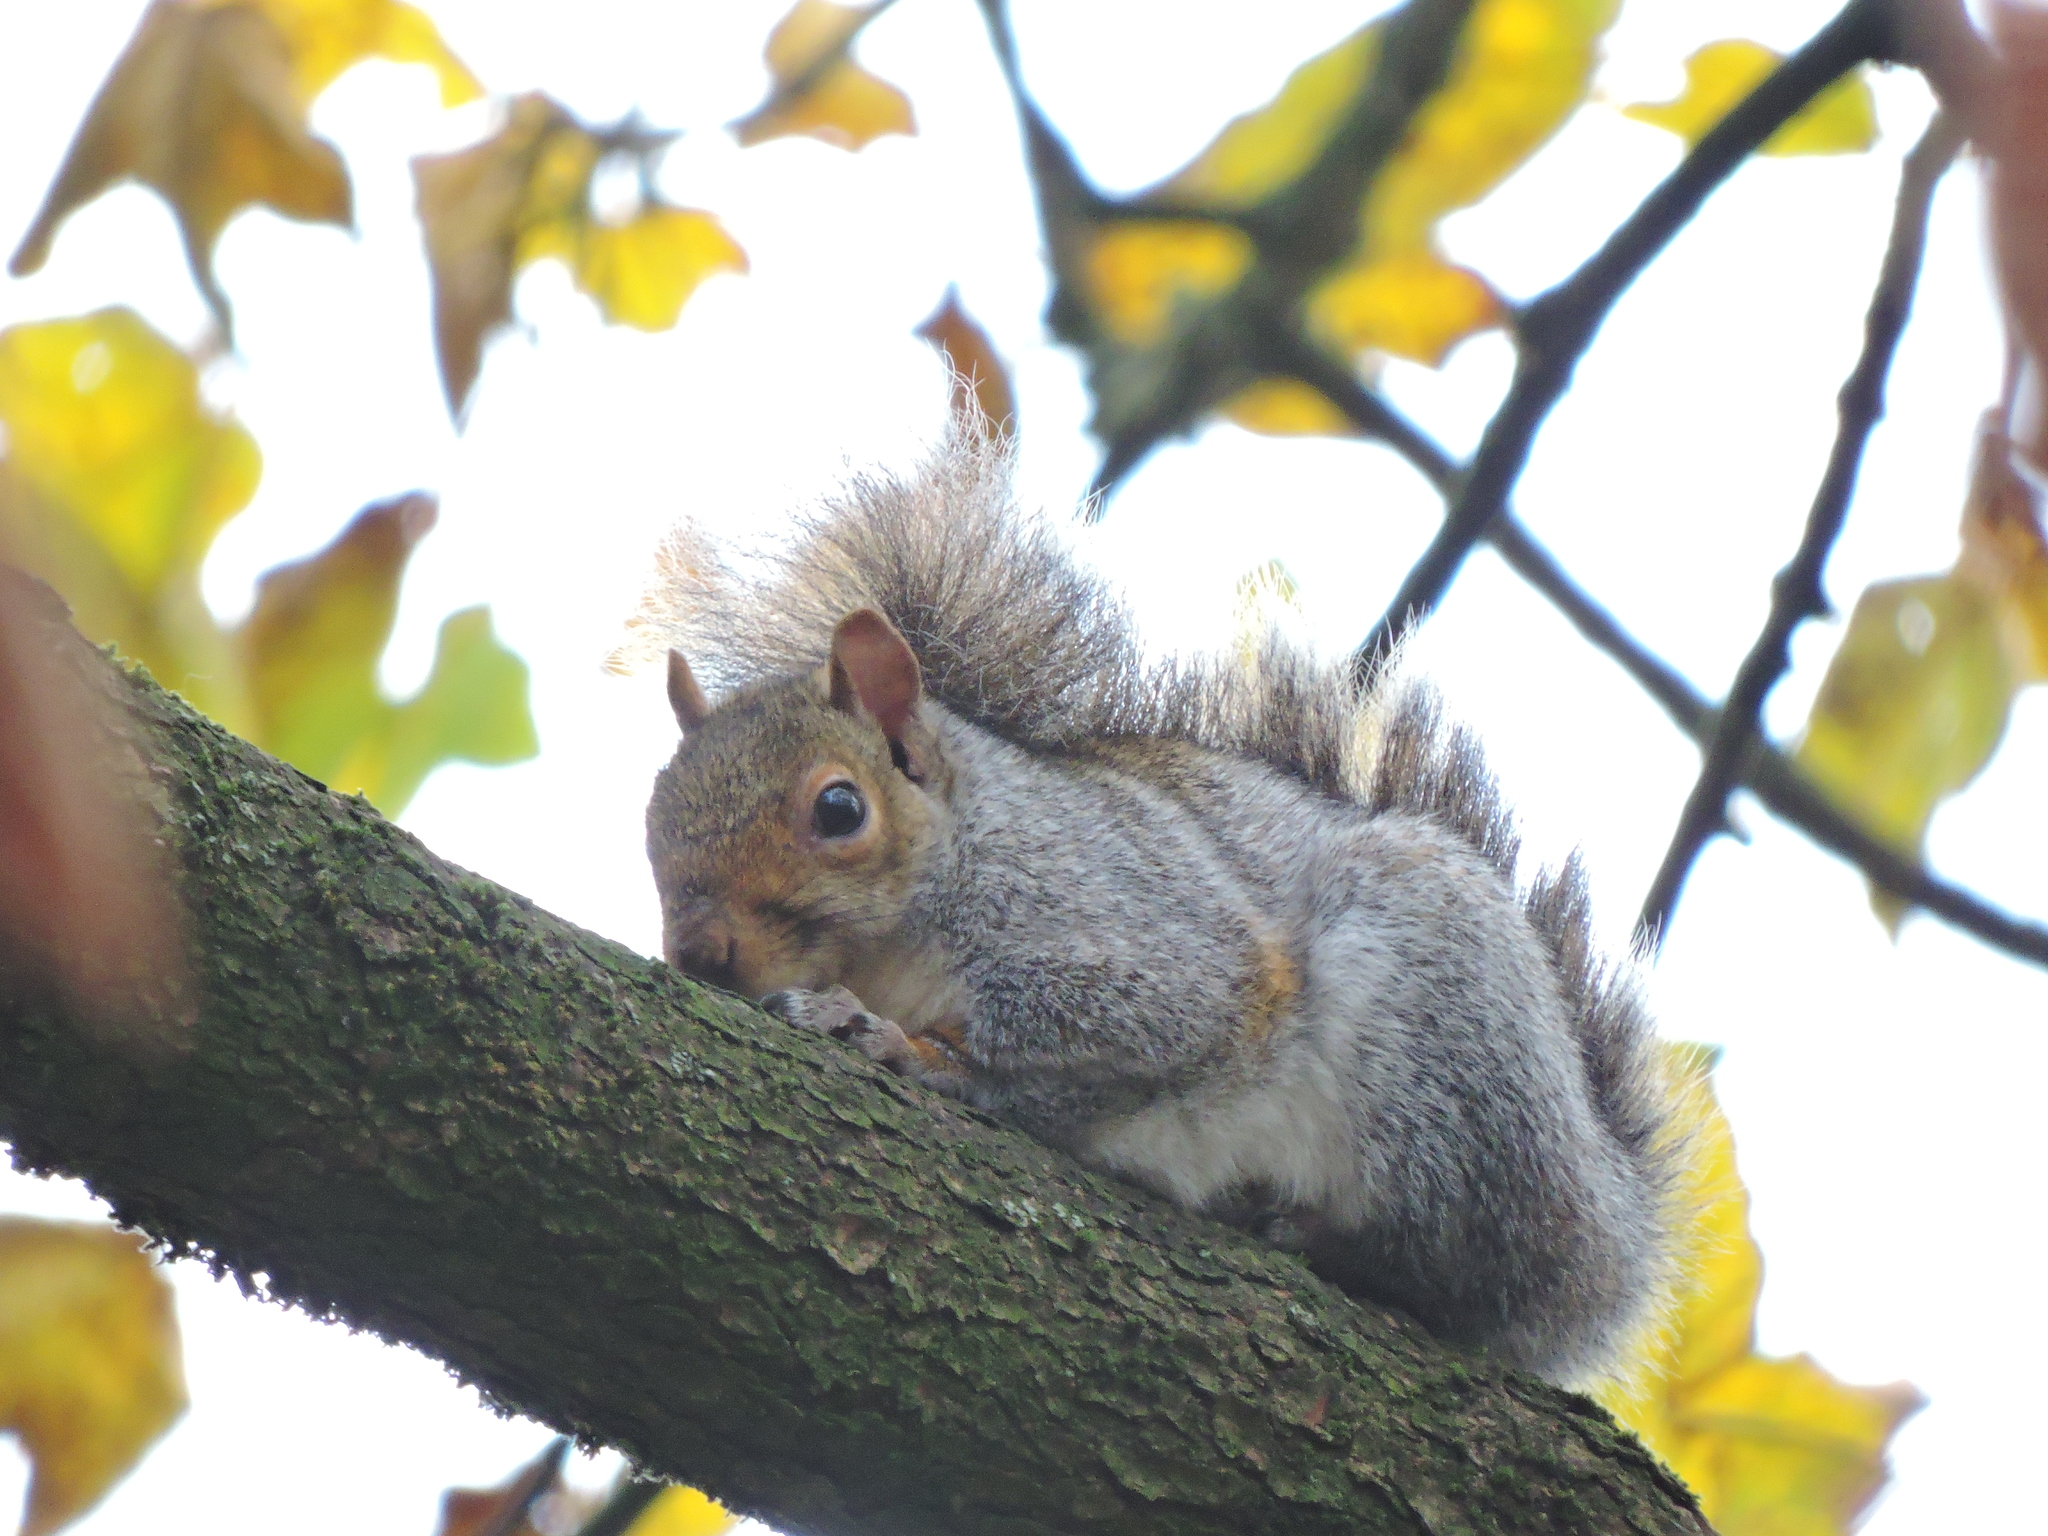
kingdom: Animalia
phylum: Chordata
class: Mammalia
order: Rodentia
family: Sciuridae
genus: Sciurus
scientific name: Sciurus carolinensis
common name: Eastern gray squirrel
